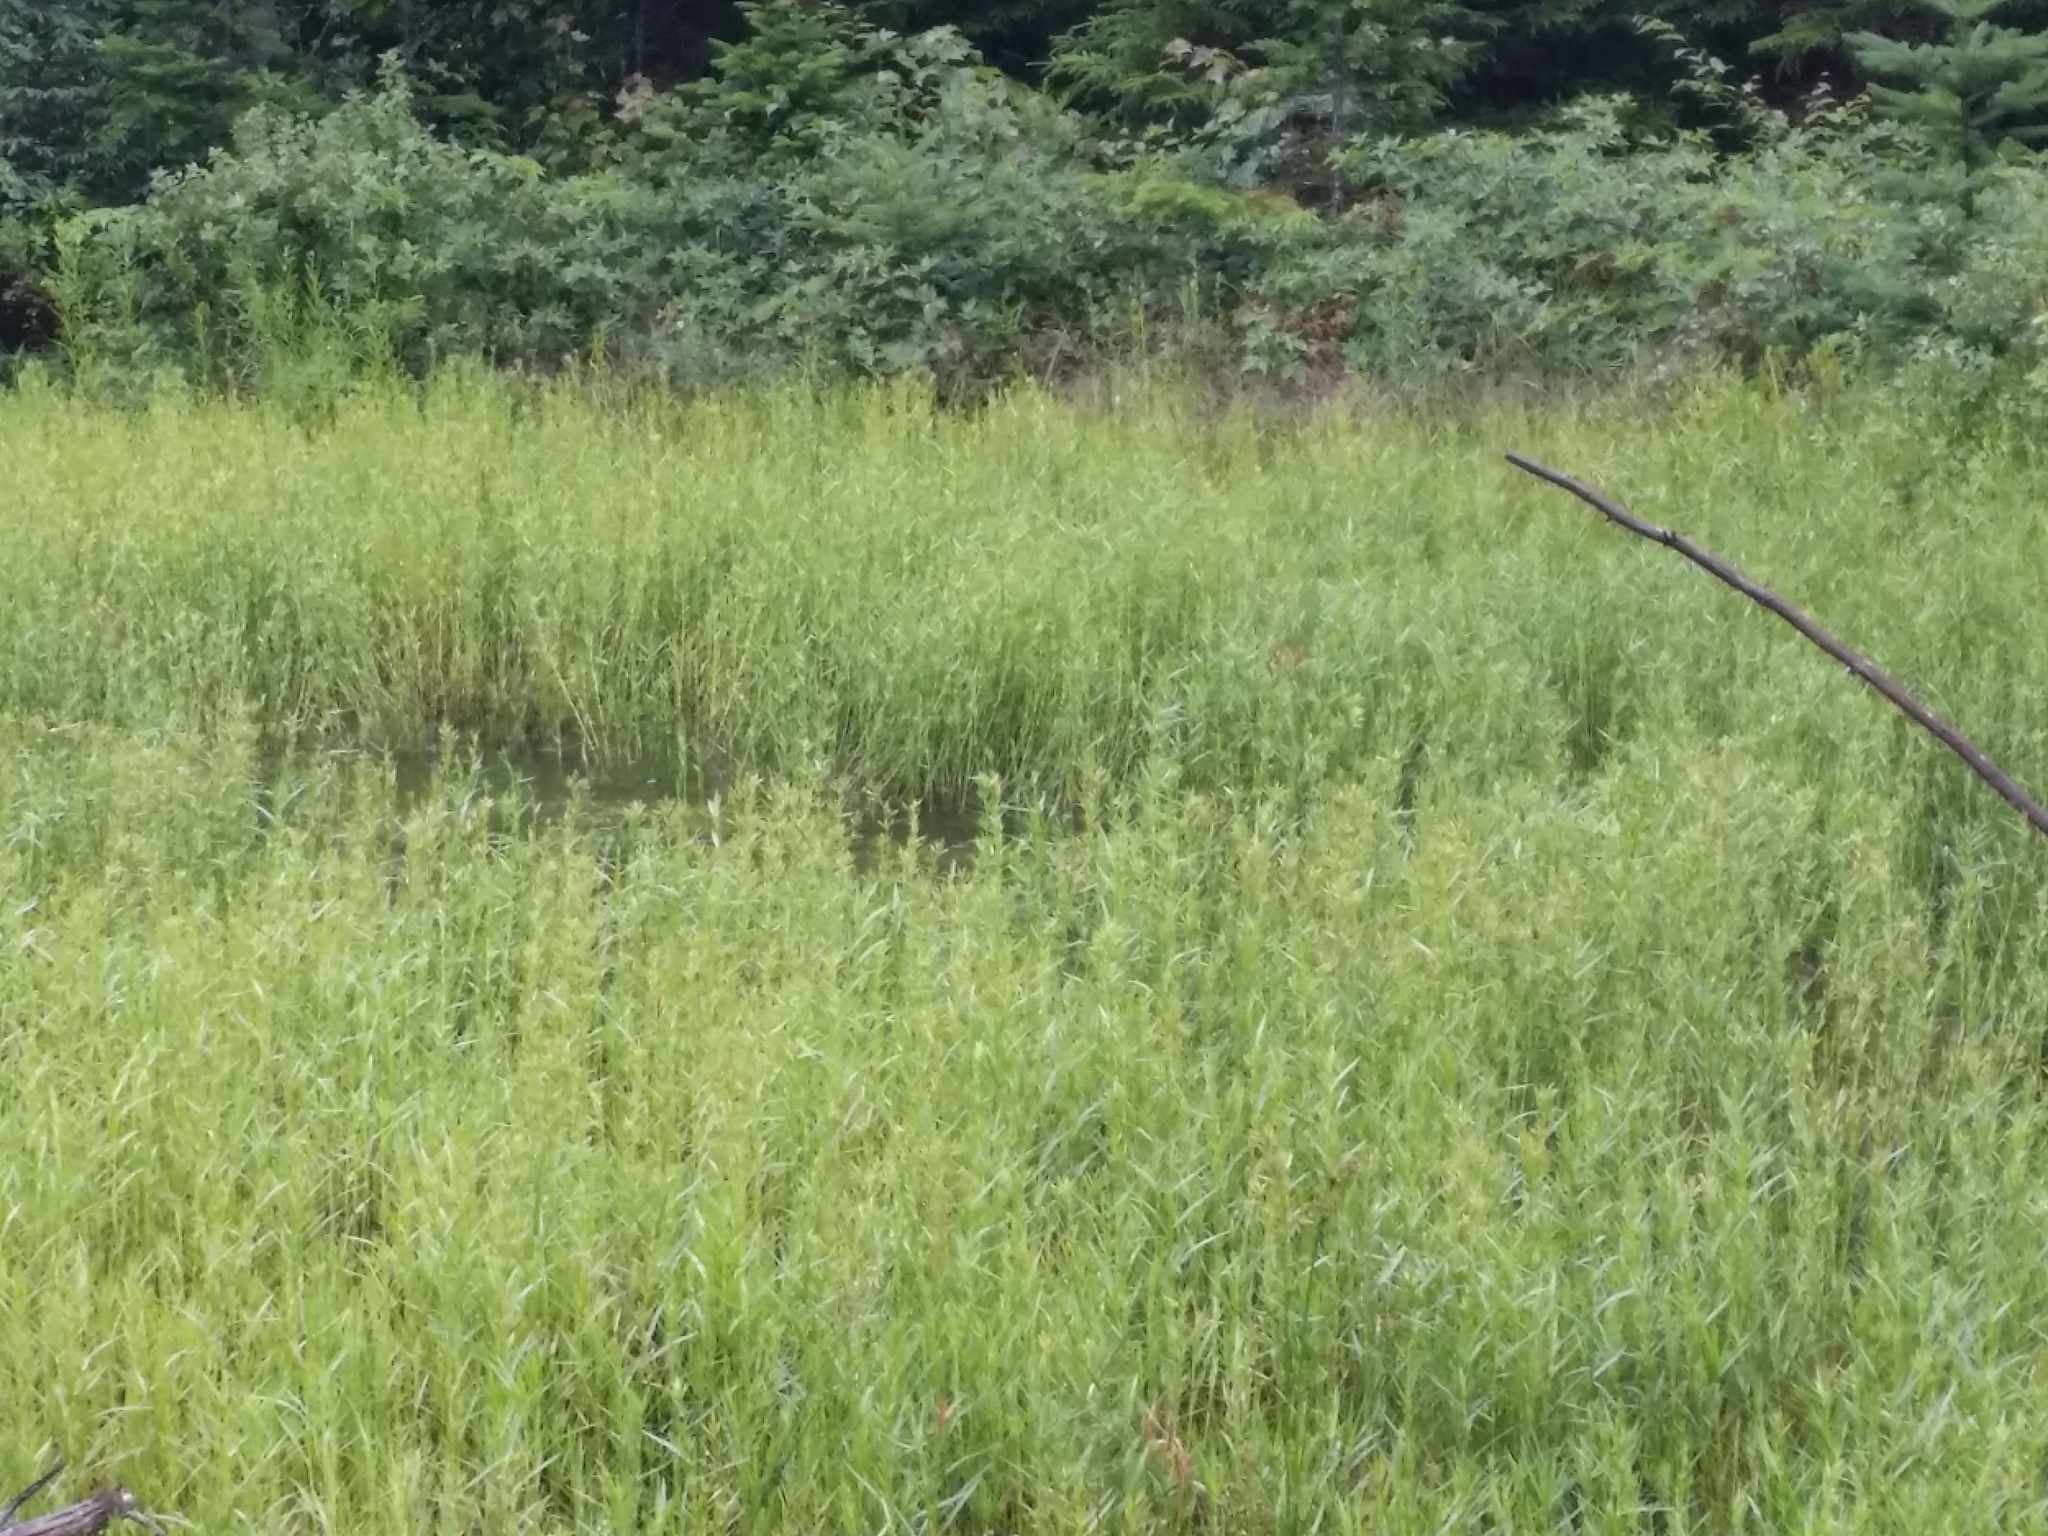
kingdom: Plantae
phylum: Tracheophyta
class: Liliopsida
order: Poales
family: Cyperaceae
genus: Dulichium
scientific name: Dulichium arundinaceum
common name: Three-way sedge
